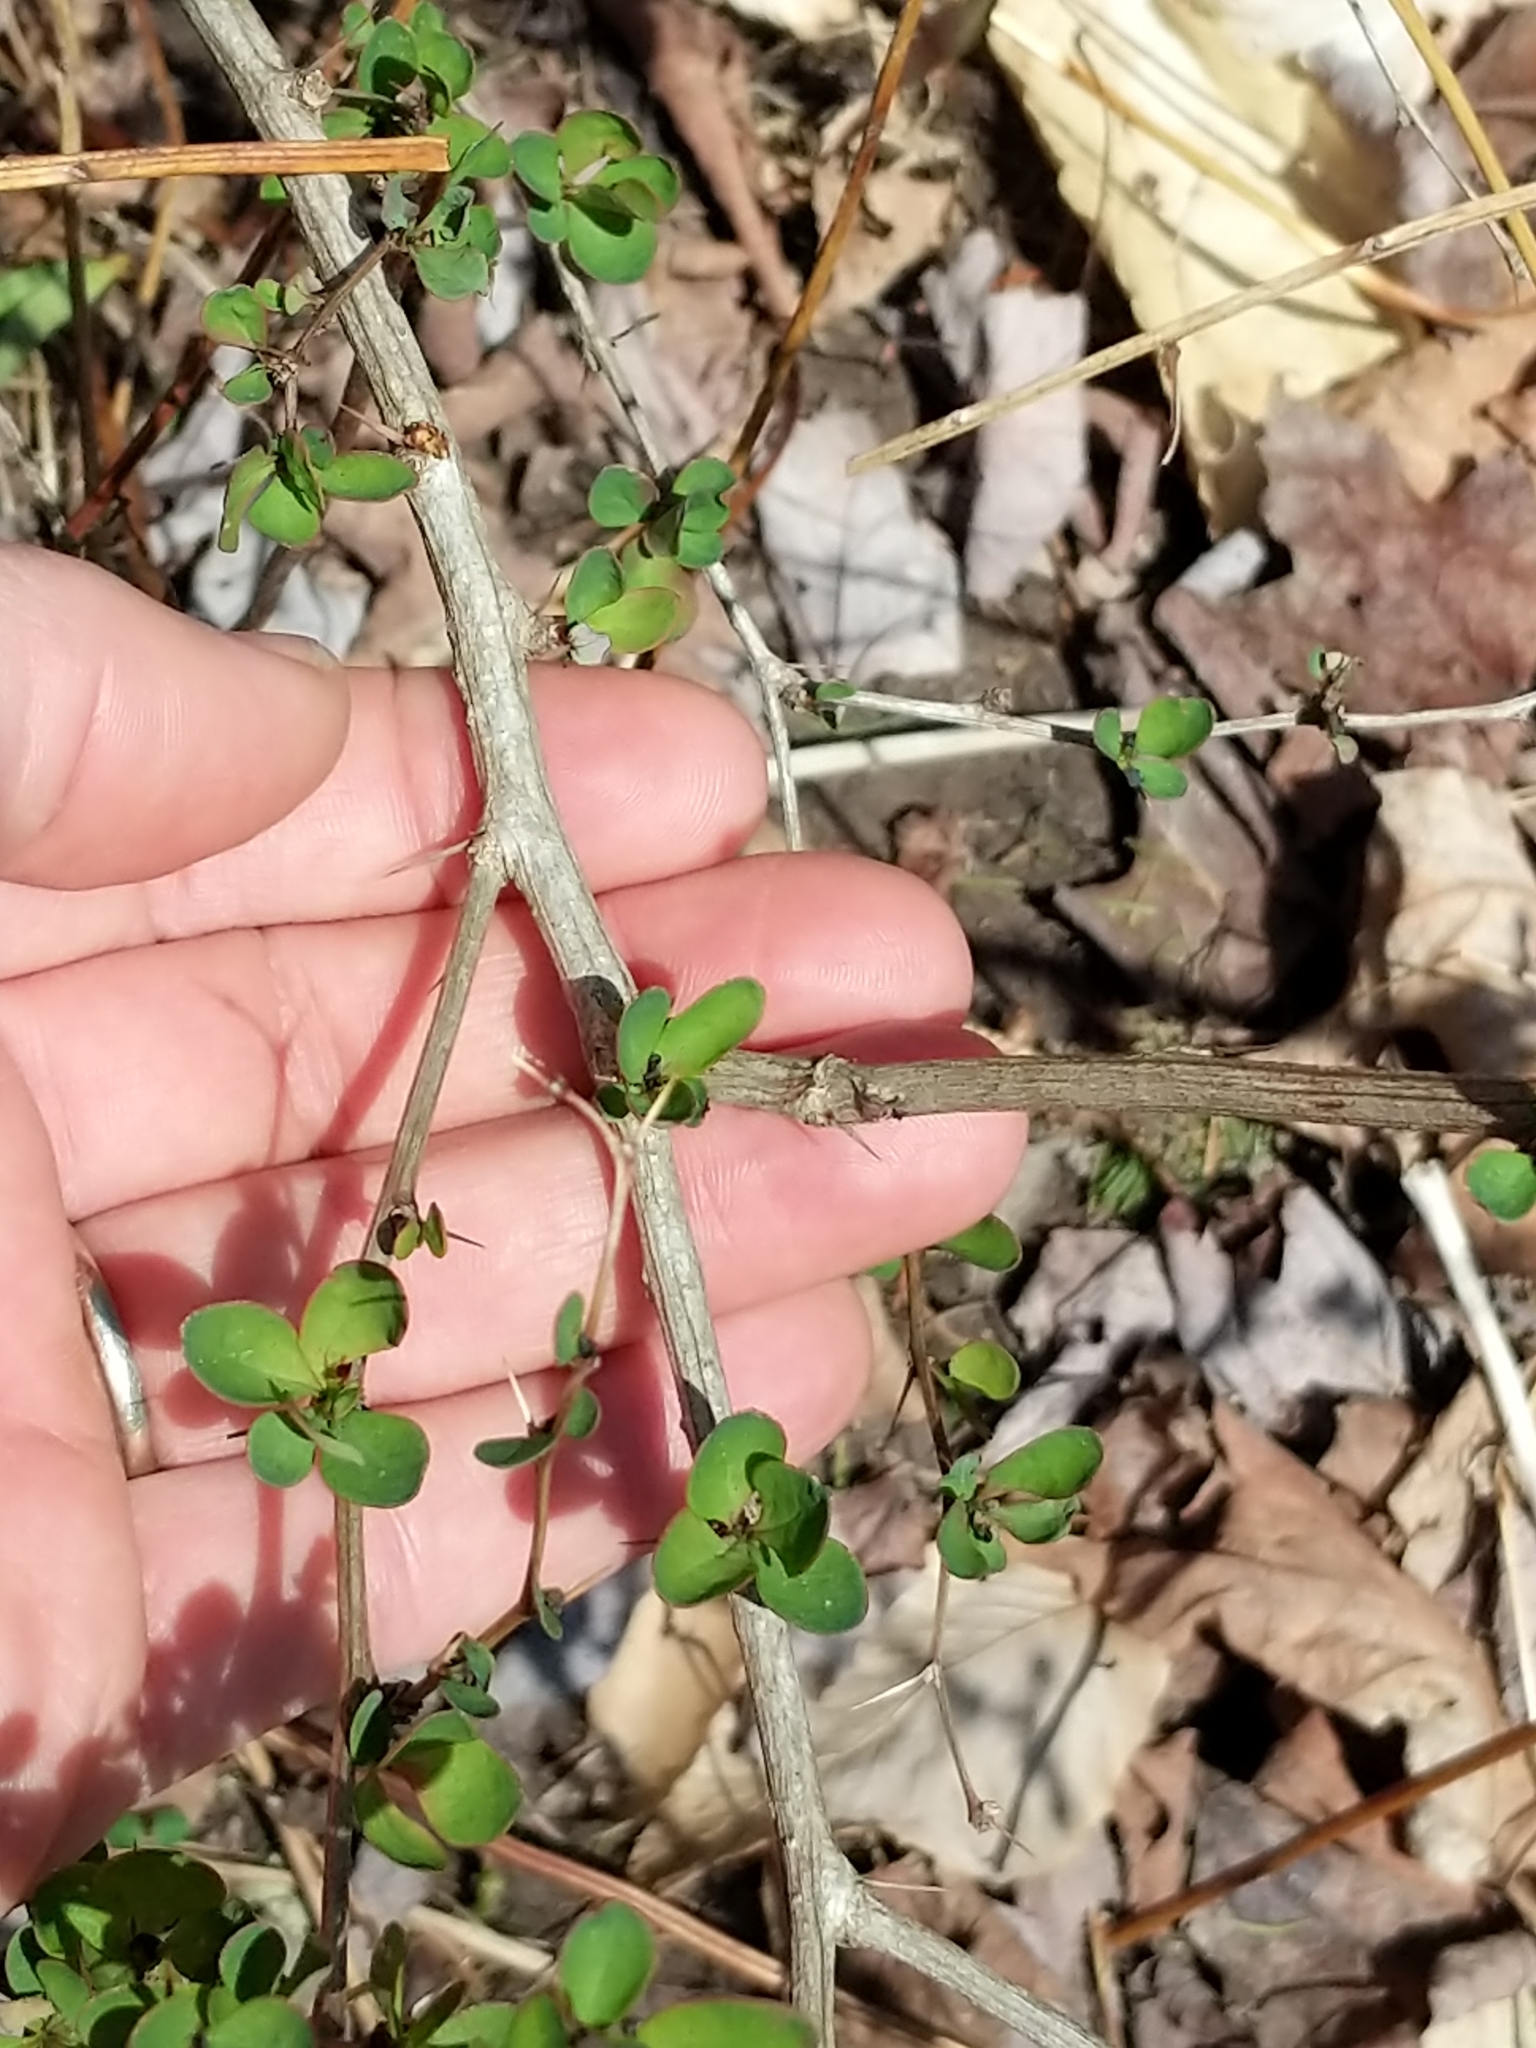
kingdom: Plantae
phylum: Tracheophyta
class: Magnoliopsida
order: Ranunculales
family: Berberidaceae
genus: Berberis
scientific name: Berberis thunbergii
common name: Japanese barberry
